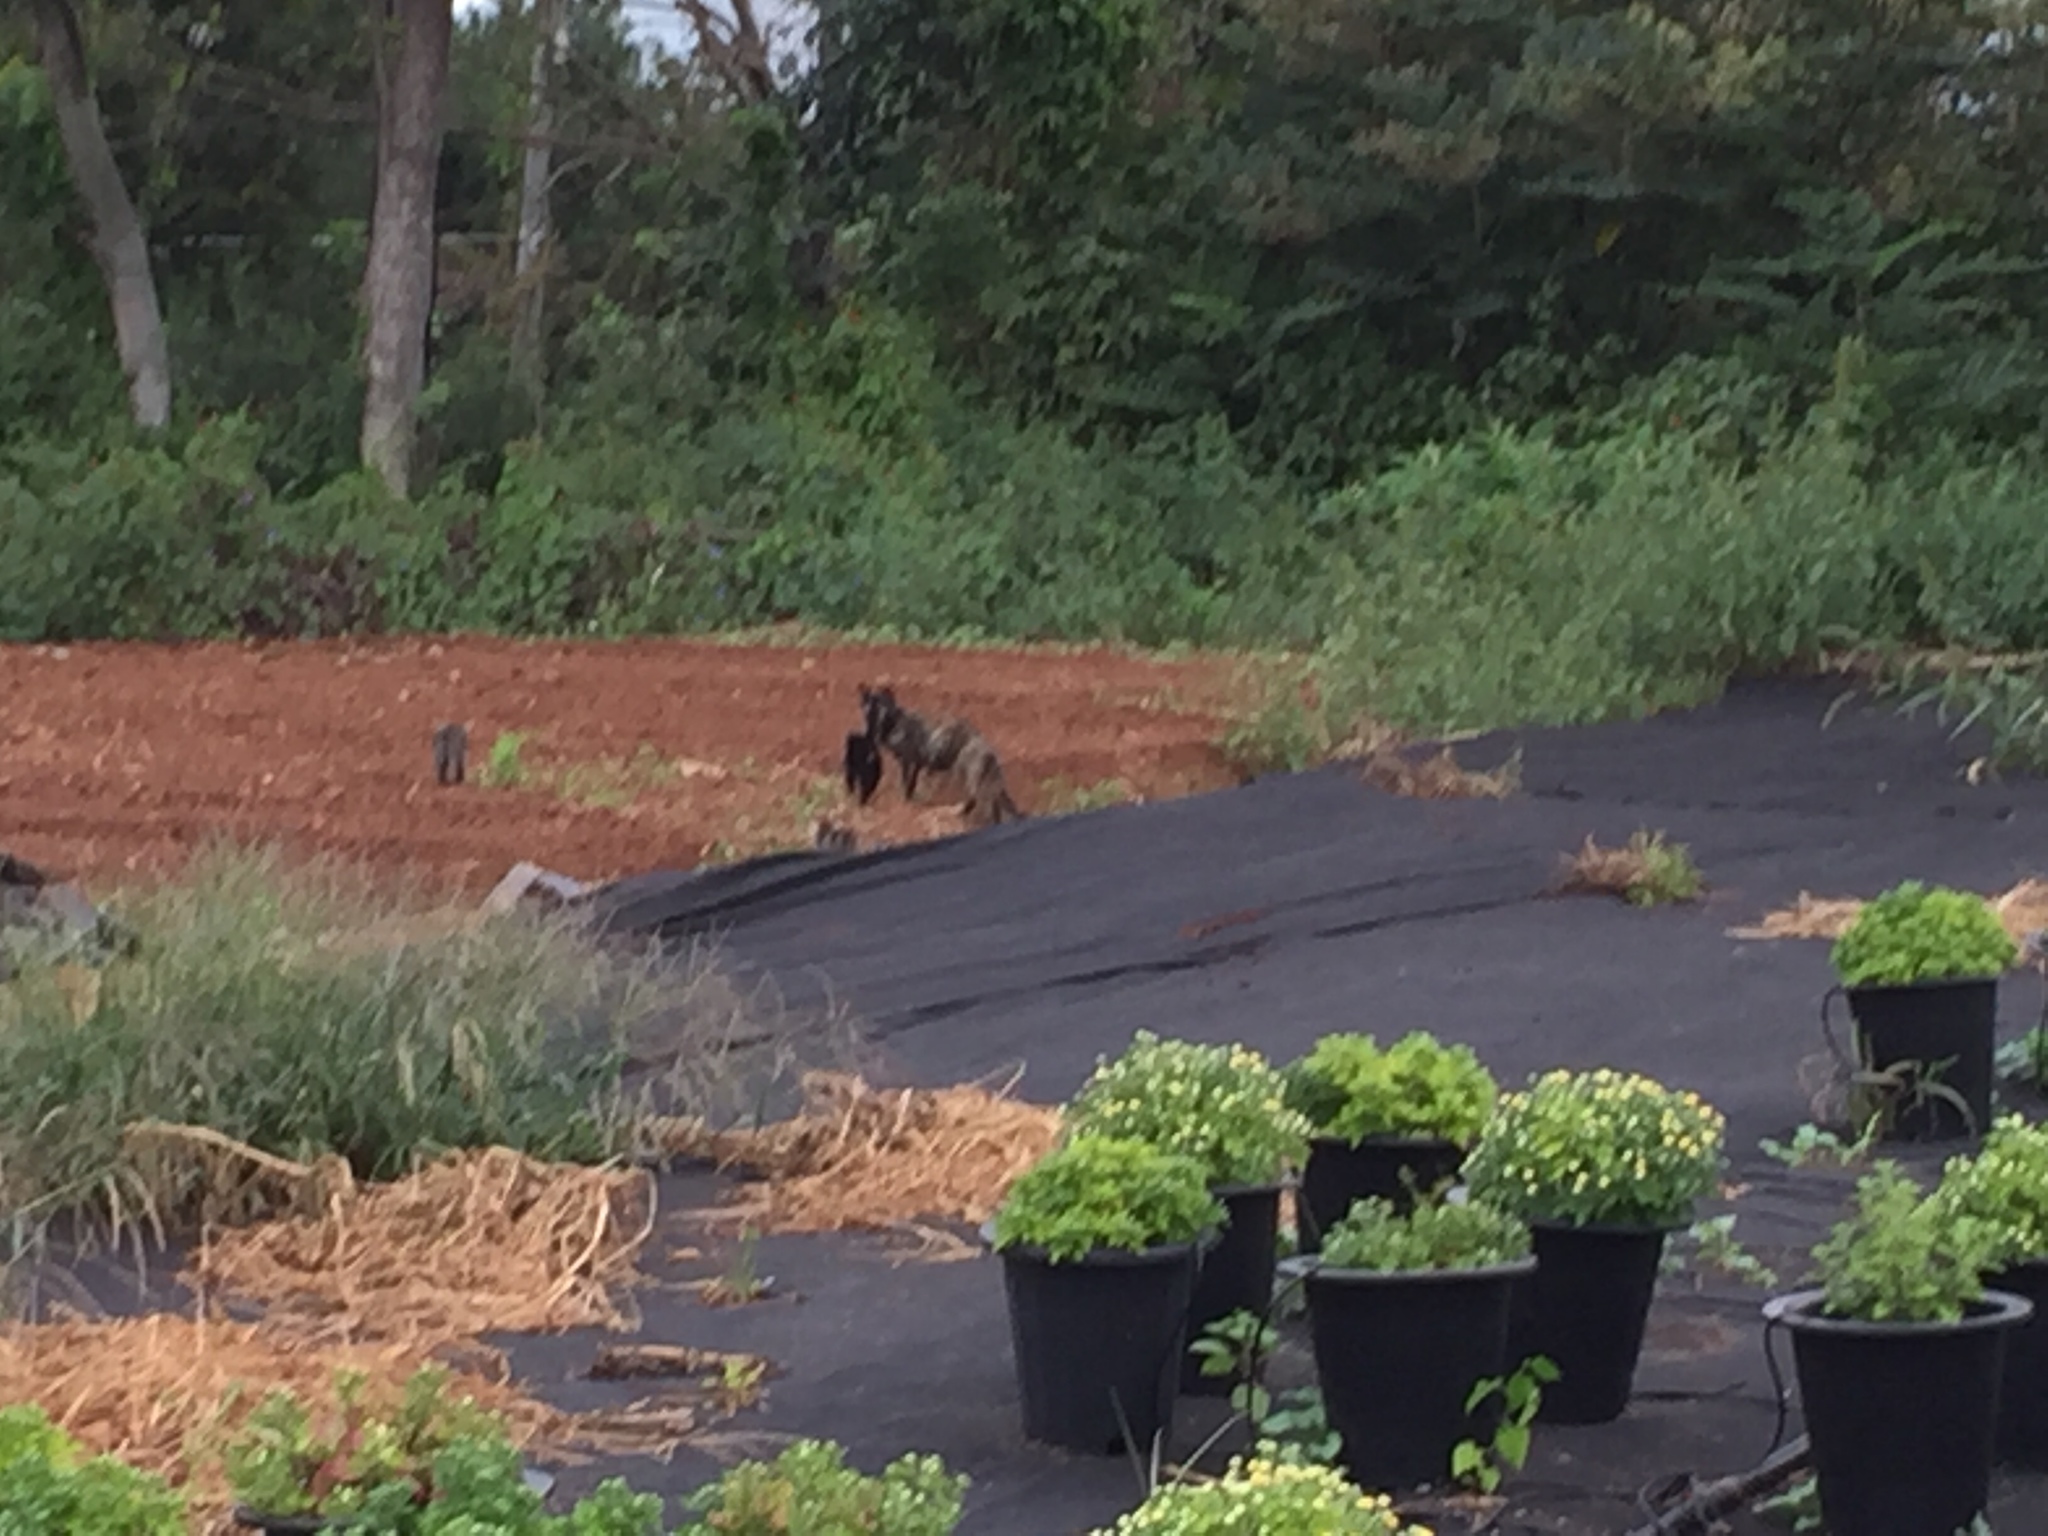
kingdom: Animalia
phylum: Chordata
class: Mammalia
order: Carnivora
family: Felidae
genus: Felis
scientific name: Felis catus
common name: Domestic cat
